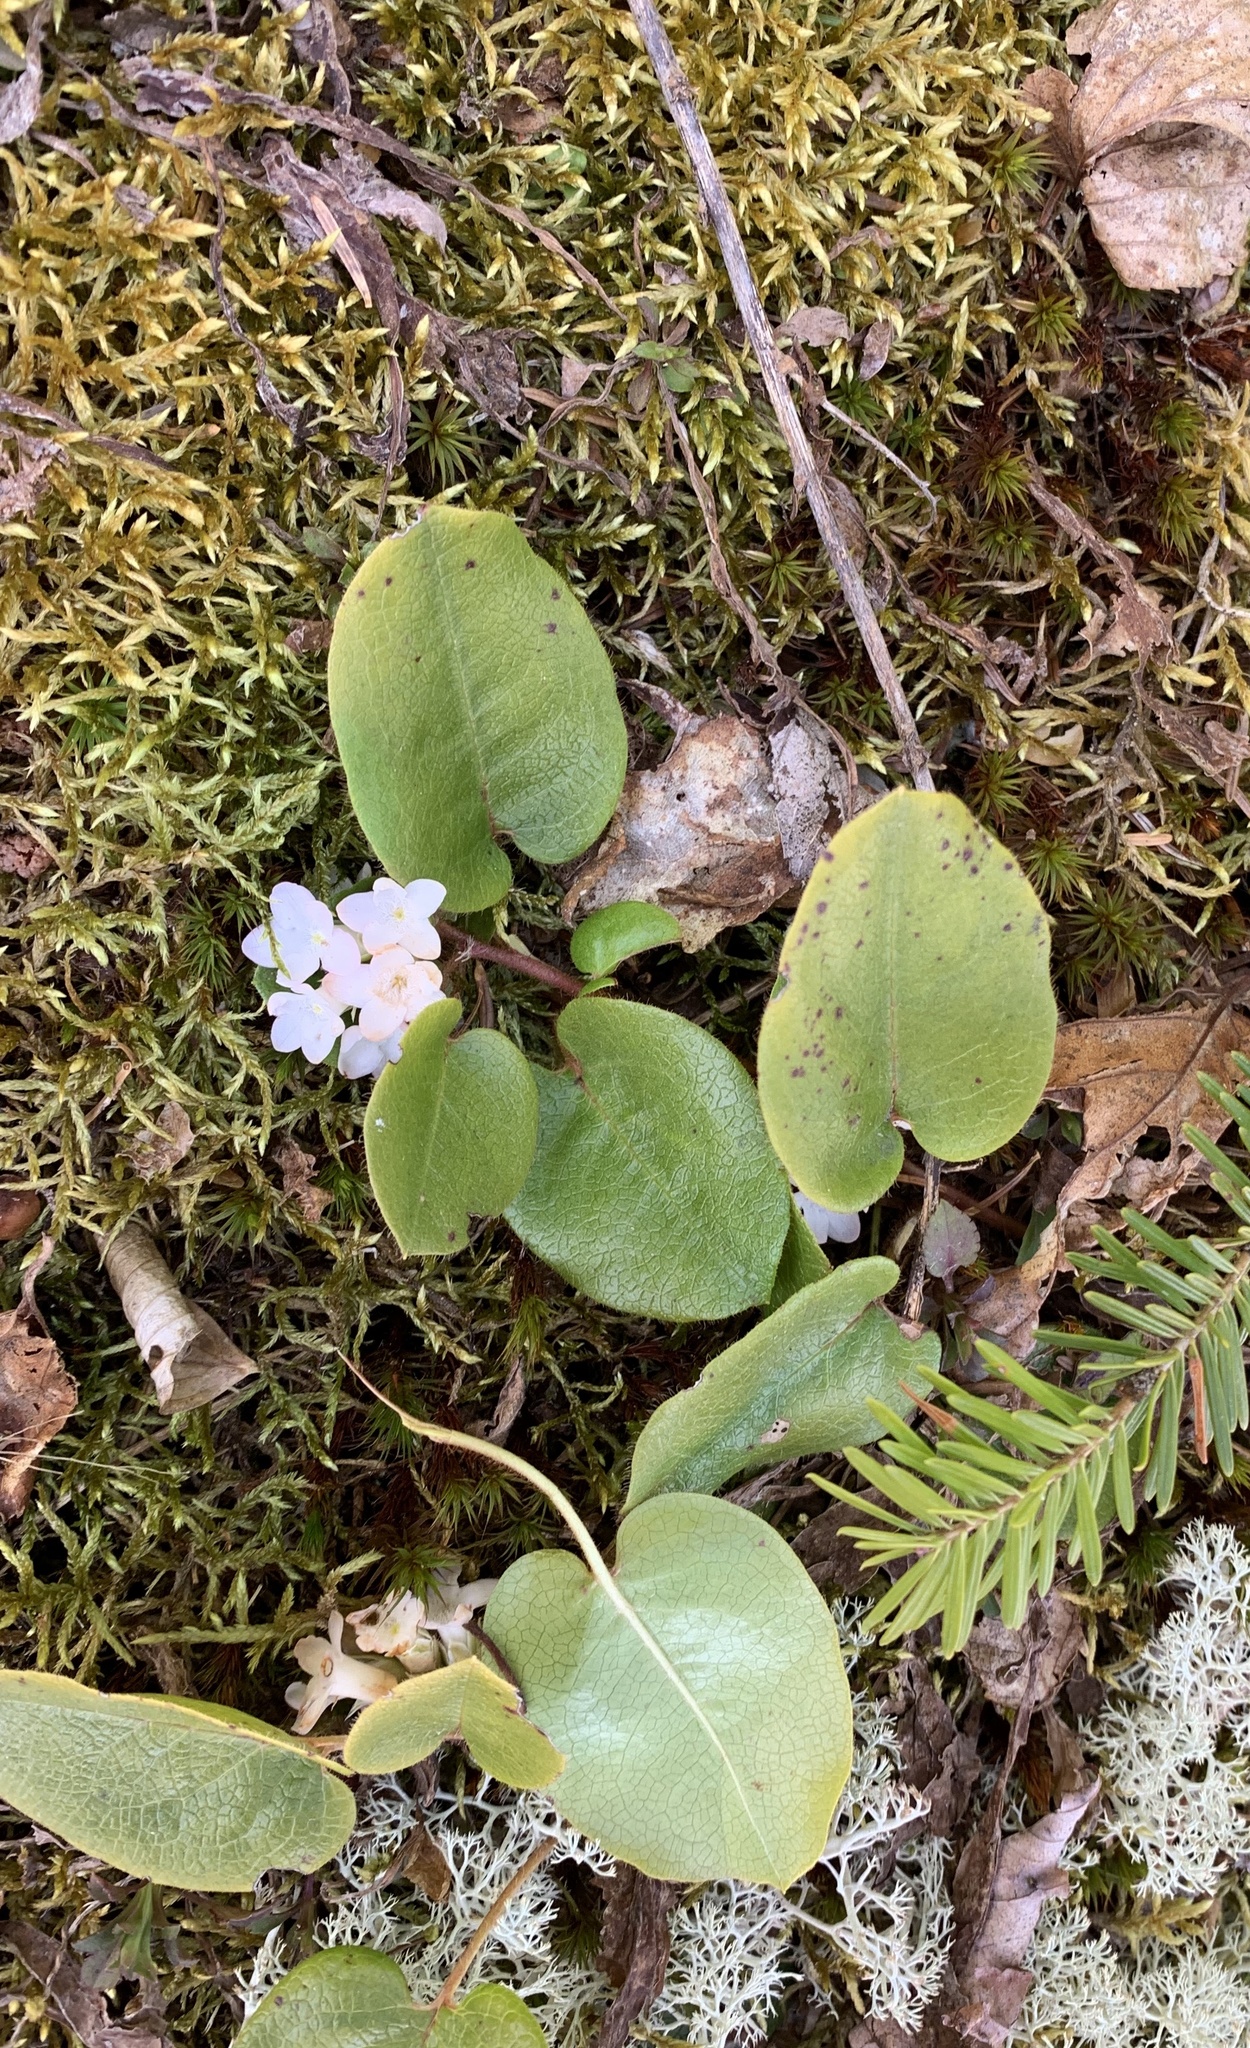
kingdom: Plantae
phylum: Tracheophyta
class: Magnoliopsida
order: Ericales
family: Ericaceae
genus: Epigaea
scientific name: Epigaea repens
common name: Gravelroot
